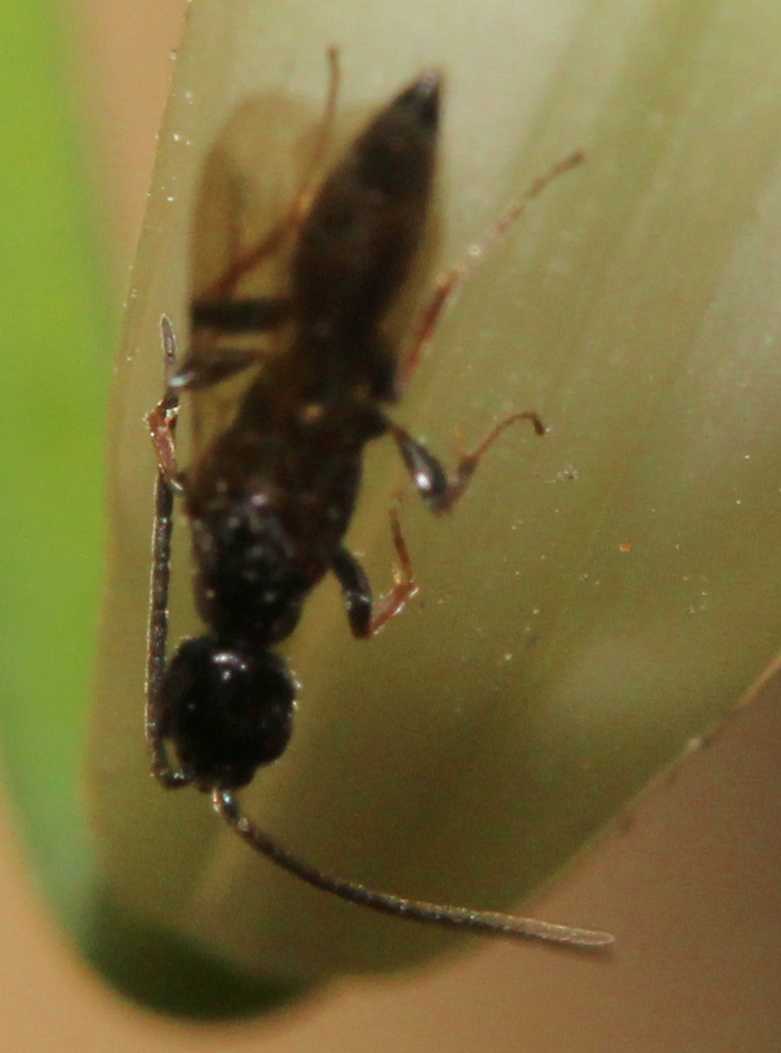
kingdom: Animalia
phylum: Arthropoda
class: Insecta
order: Hymenoptera
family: Bethylidae
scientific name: Bethylidae
